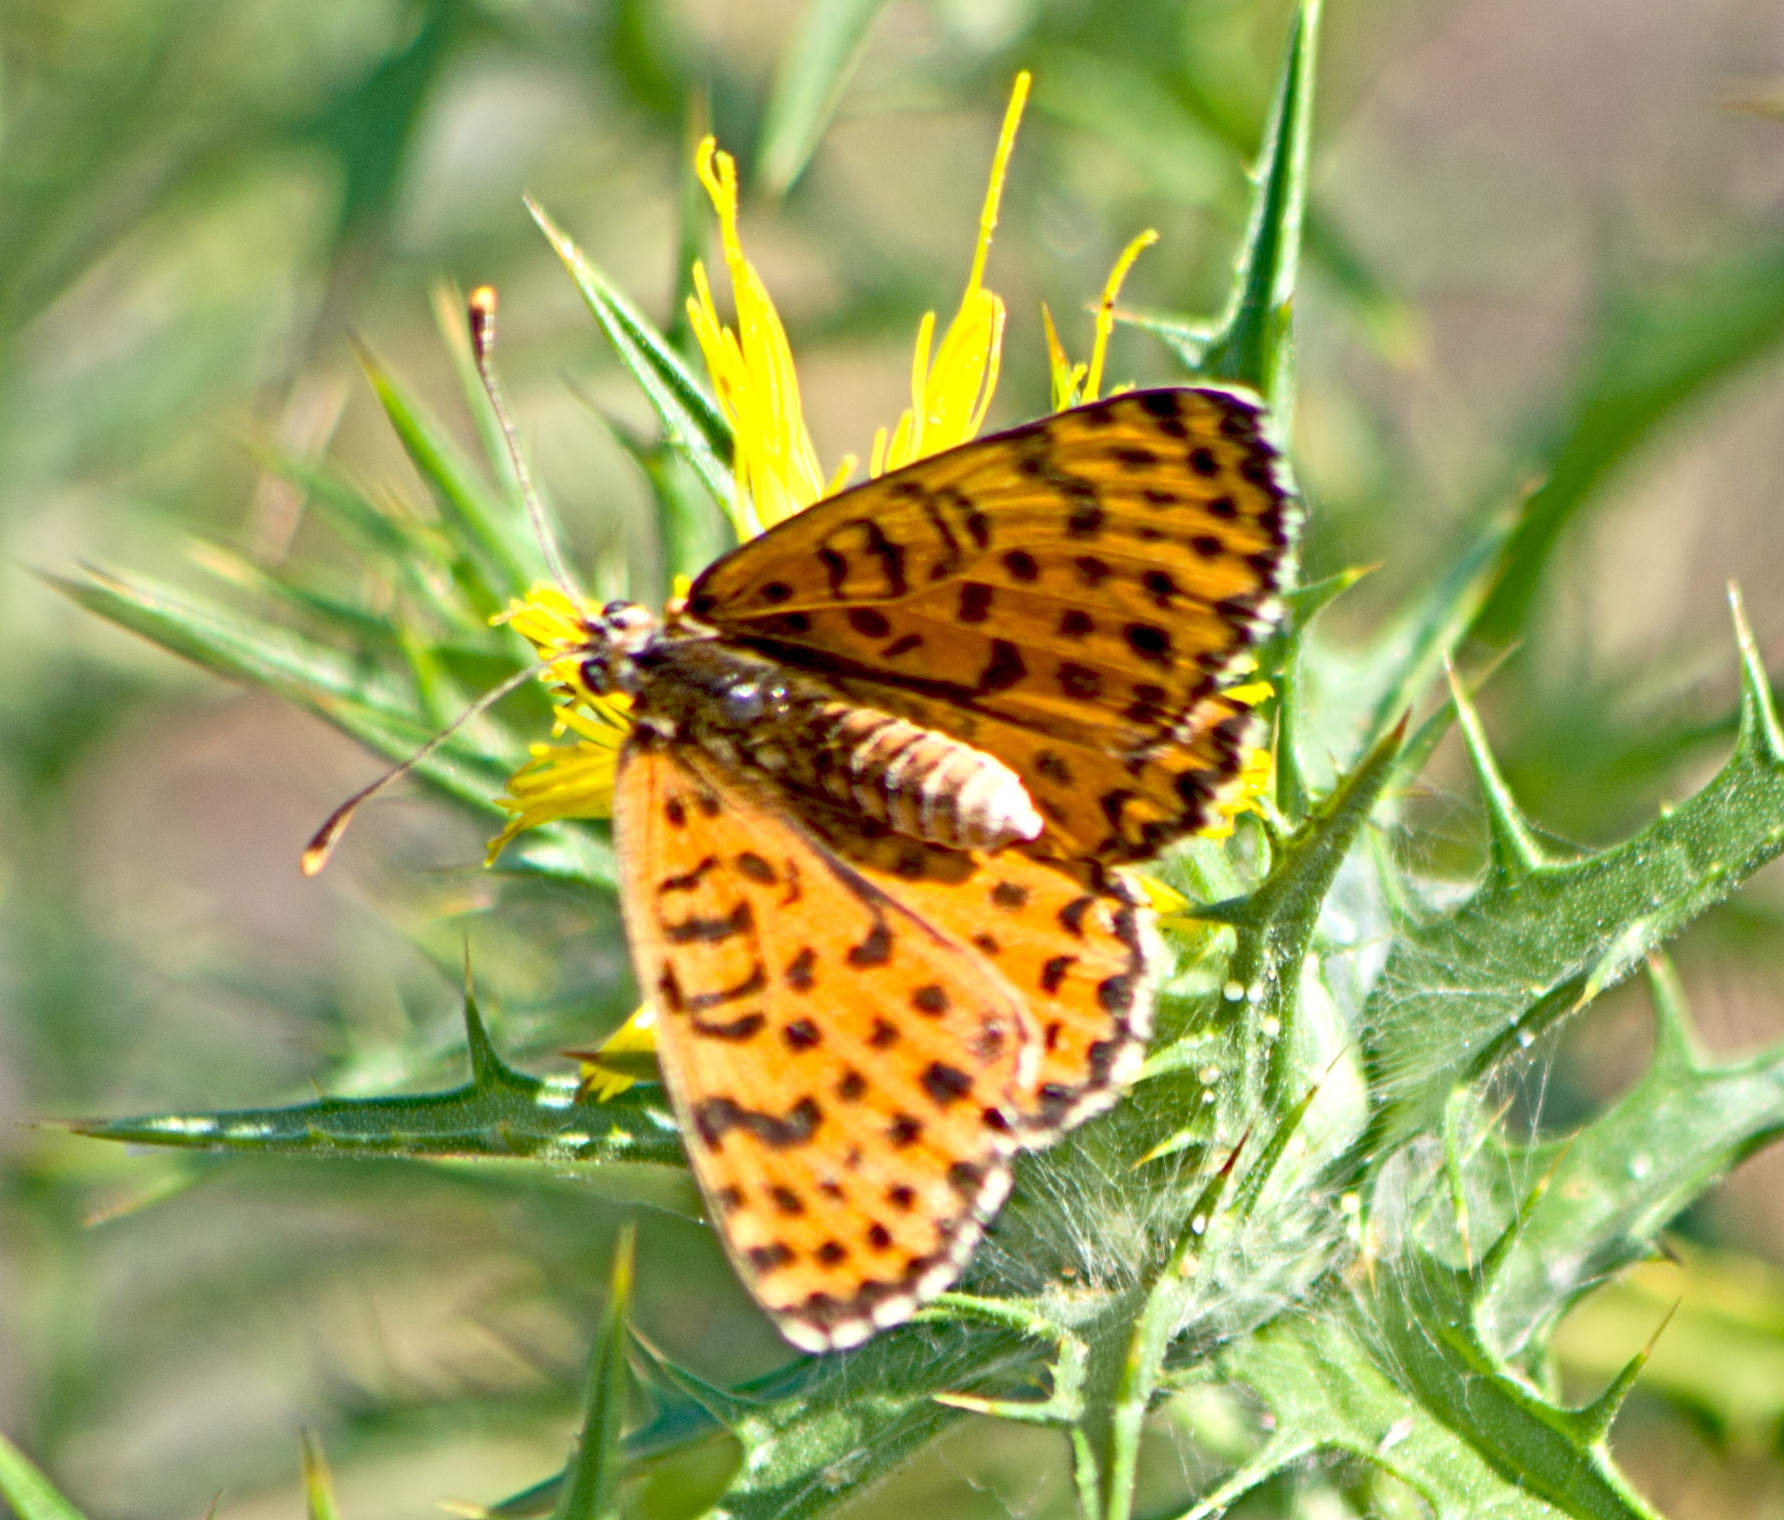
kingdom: Animalia
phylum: Arthropoda
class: Insecta
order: Lepidoptera
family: Nymphalidae
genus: Melitaea
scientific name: Melitaea didyma
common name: Spotted fritillary
